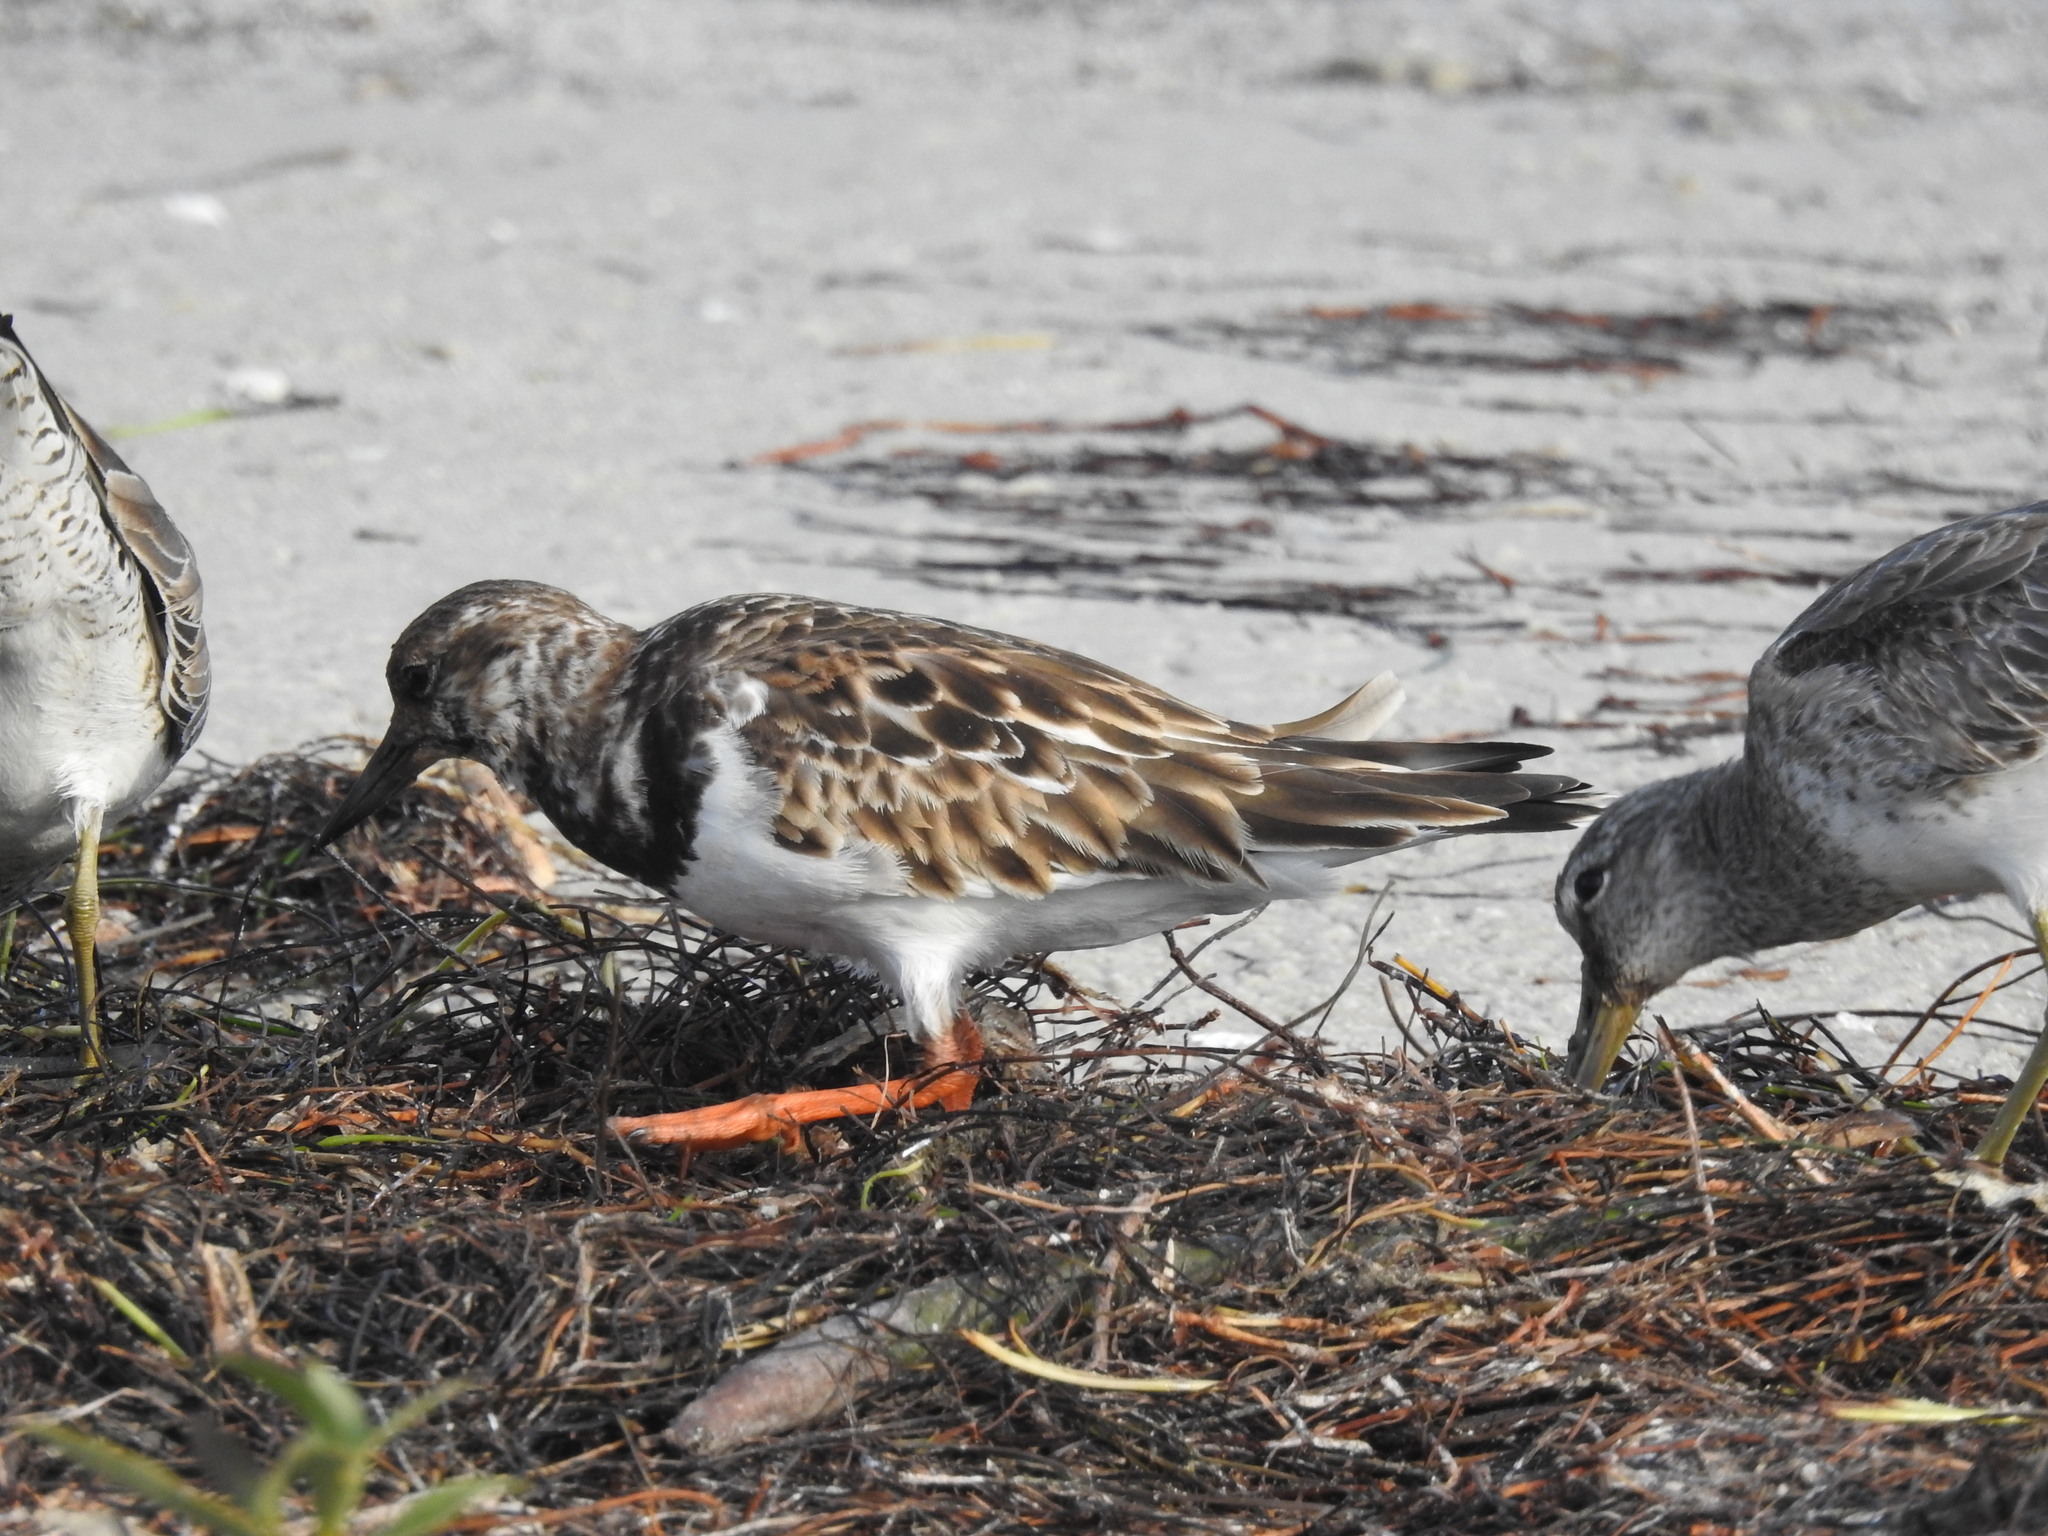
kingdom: Animalia
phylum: Chordata
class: Aves
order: Charadriiformes
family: Scolopacidae
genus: Arenaria
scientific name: Arenaria interpres
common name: Ruddy turnstone
